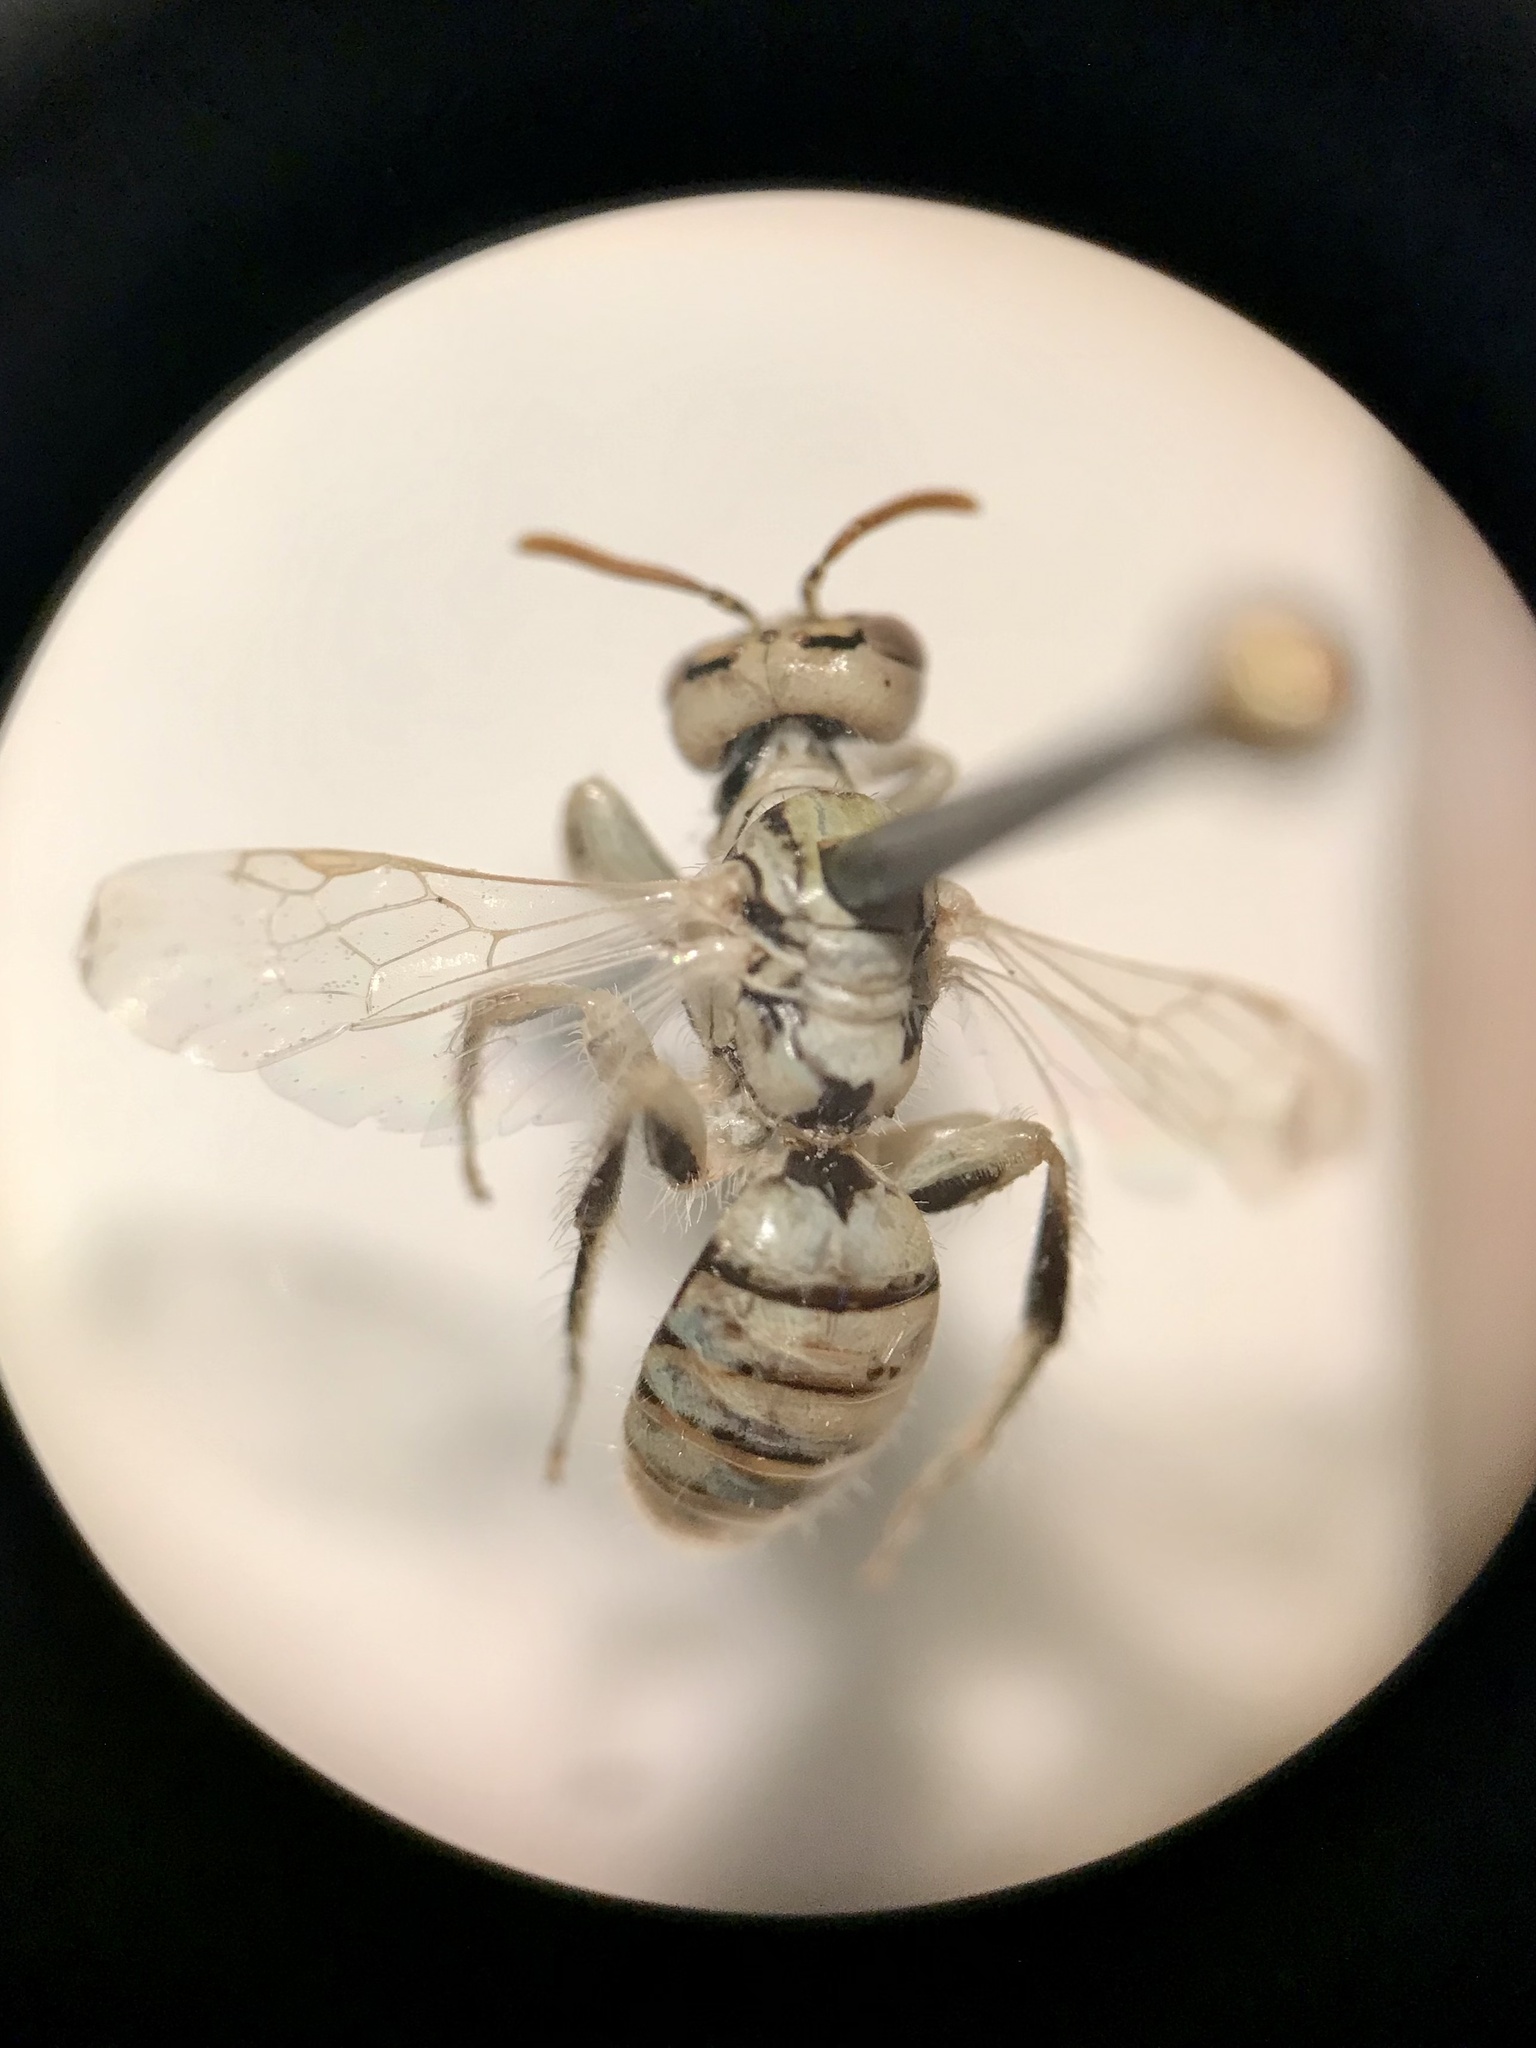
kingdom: Animalia
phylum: Arthropoda
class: Insecta
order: Hymenoptera
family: Andrenidae
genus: Perdita
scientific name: Perdita perpallida
